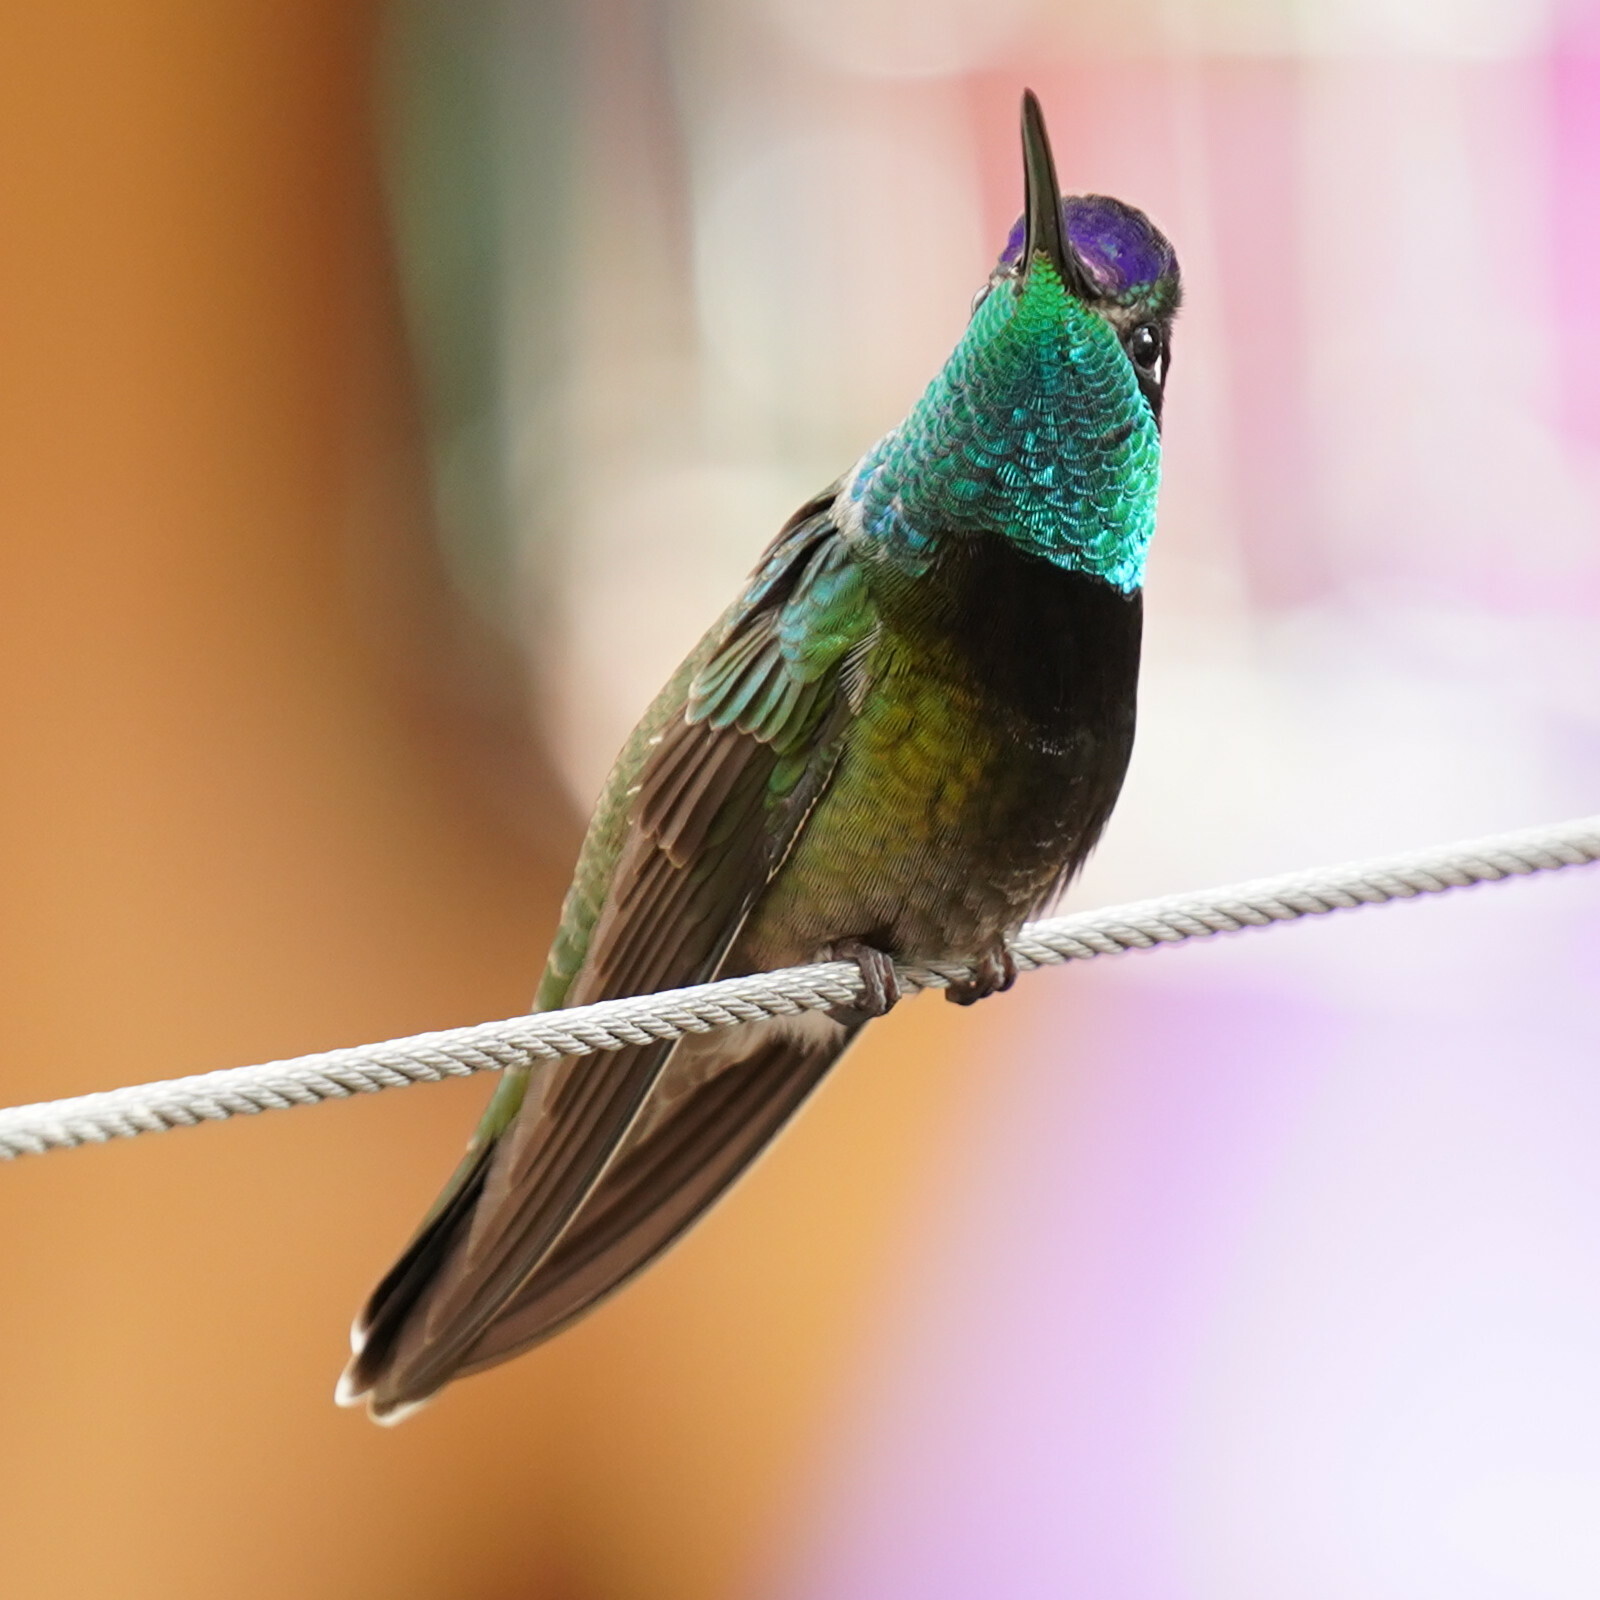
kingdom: Animalia
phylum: Chordata
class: Aves
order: Apodiformes
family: Trochilidae
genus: Eugenes
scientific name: Eugenes fulgens
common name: Magnificent hummingbird
